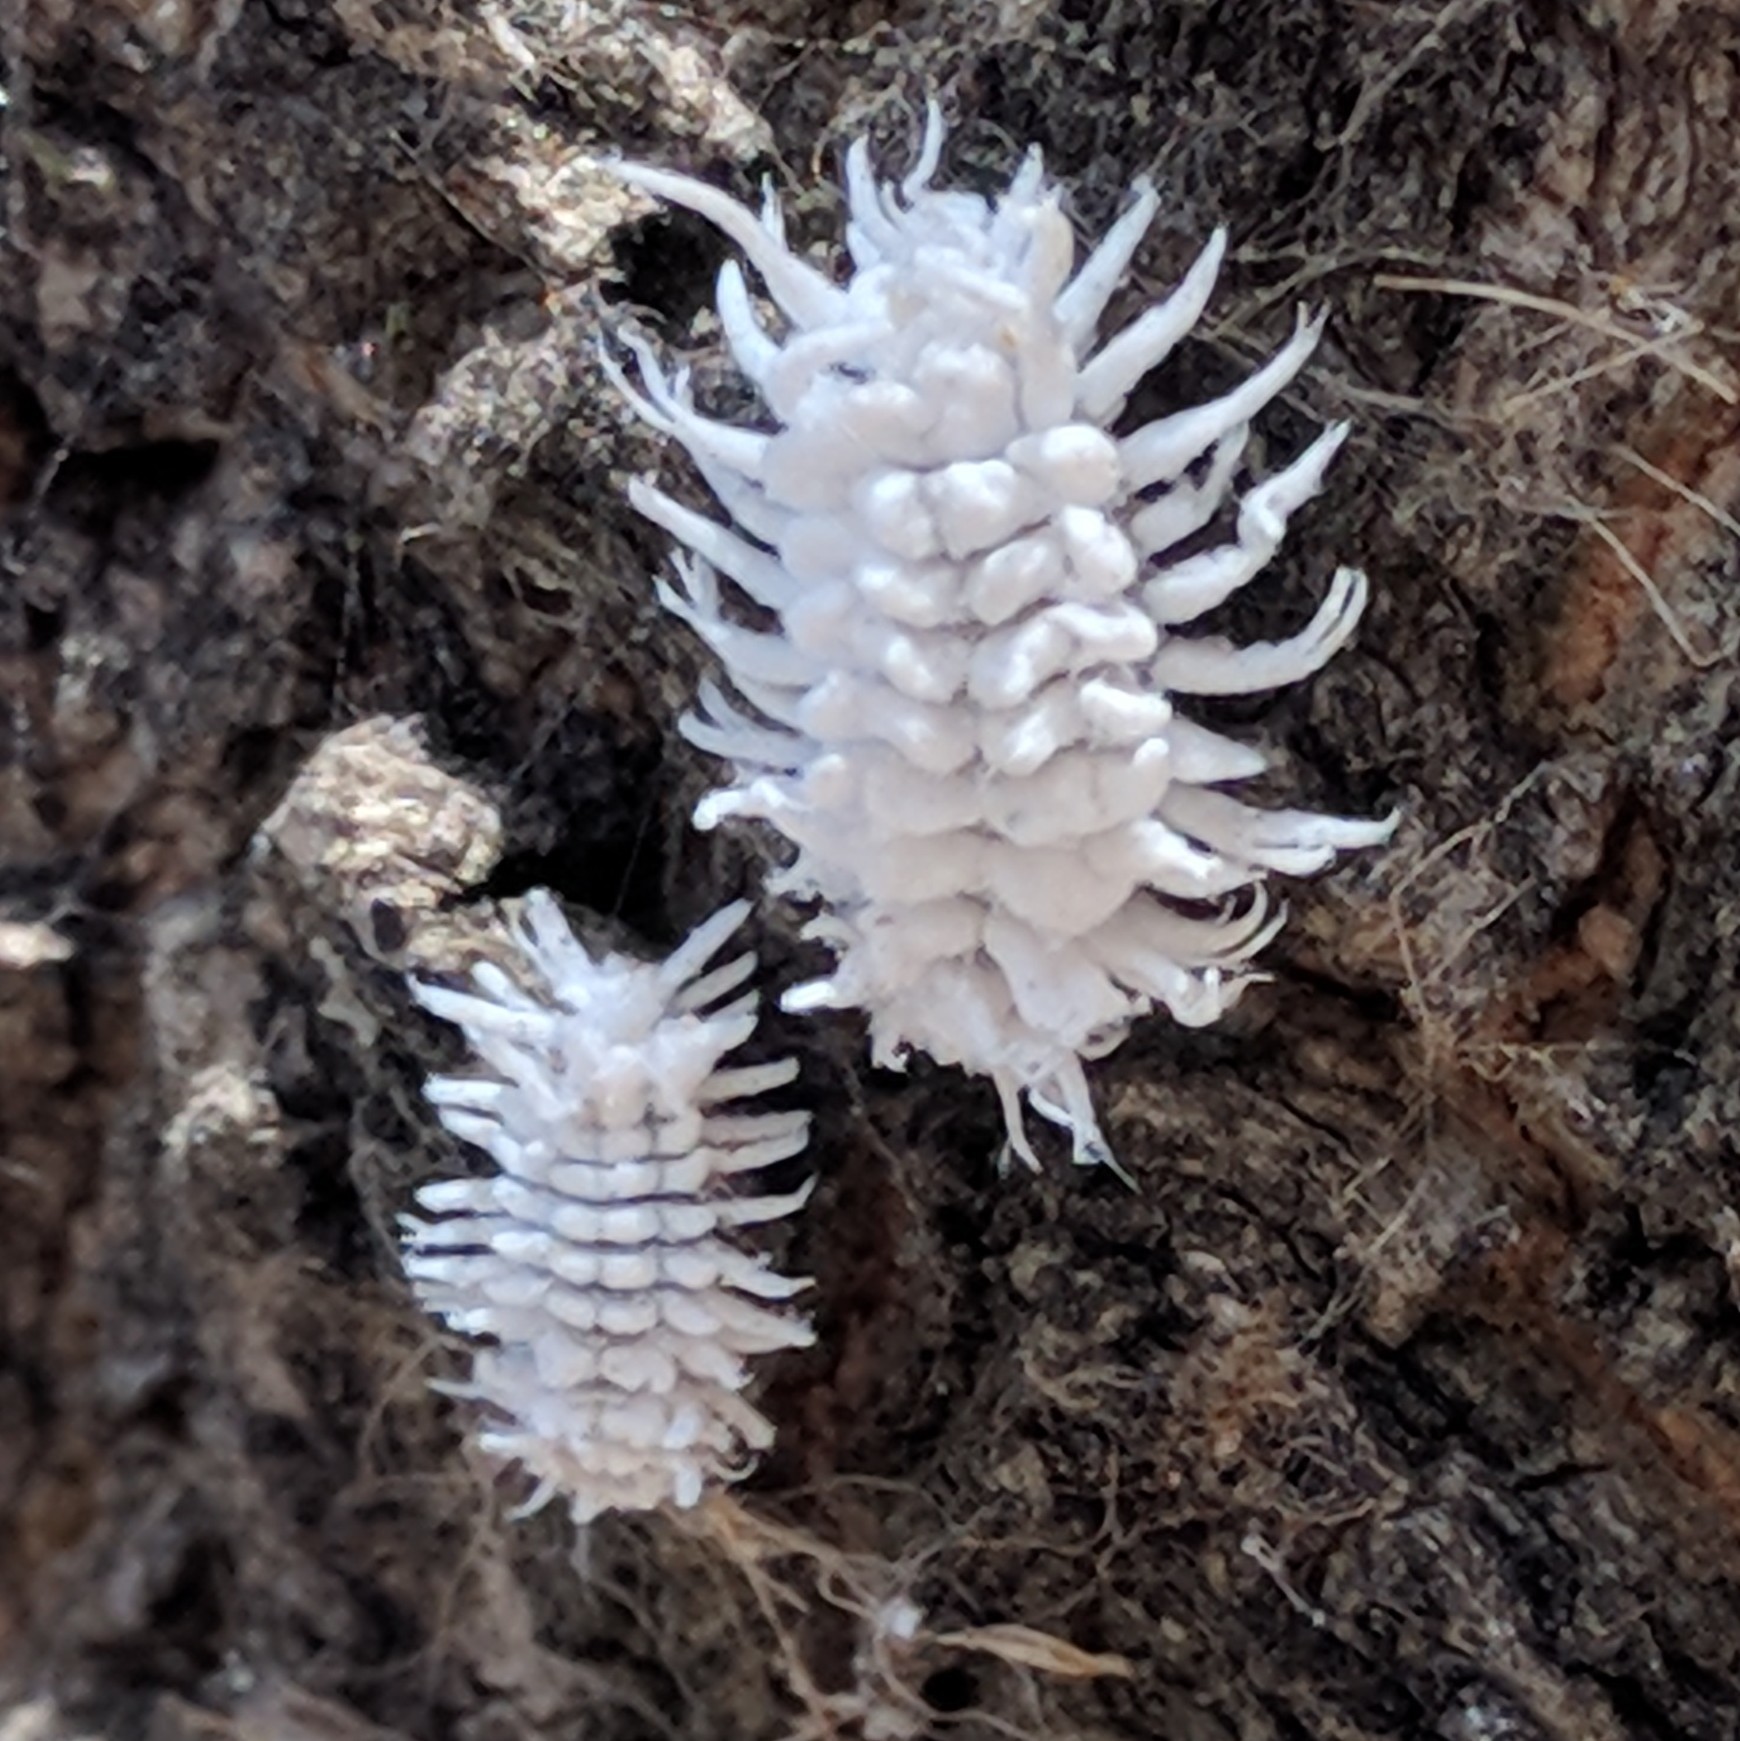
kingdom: Animalia
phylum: Arthropoda
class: Insecta
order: Coleoptera
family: Coccinellidae
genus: Cryptolaemus
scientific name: Cryptolaemus montrouzieri
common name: Mealybug destroyer
